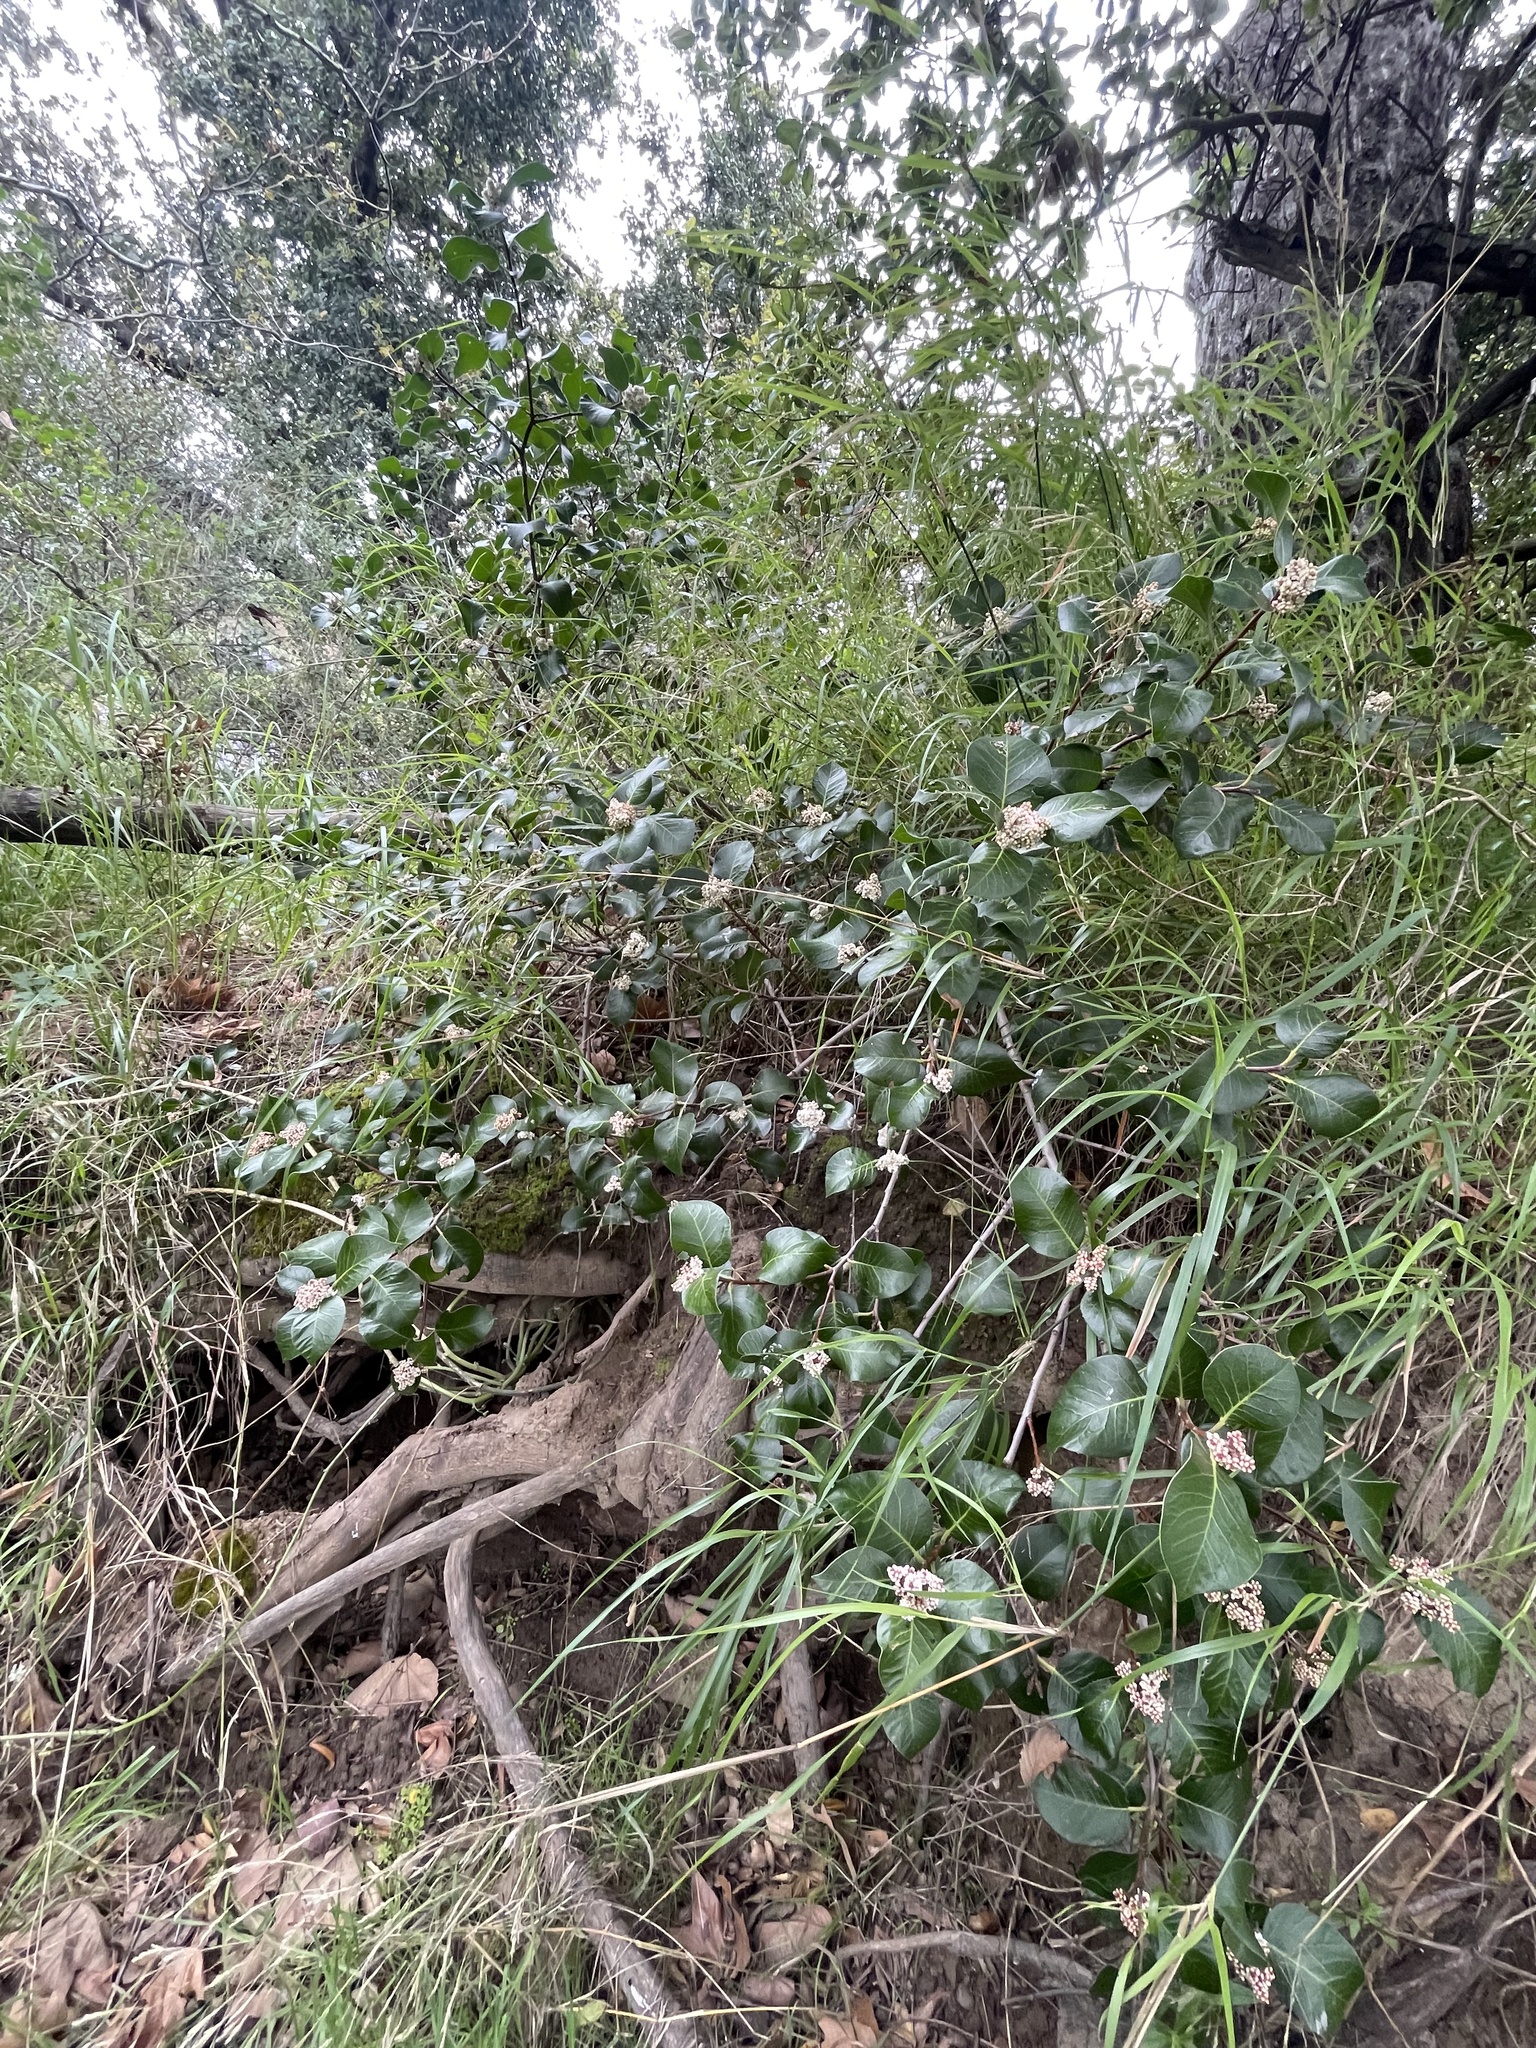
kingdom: Plantae
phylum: Tracheophyta
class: Magnoliopsida
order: Sapindales
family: Anacardiaceae
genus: Rhus
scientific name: Rhus ovata
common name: Sugar sumac
